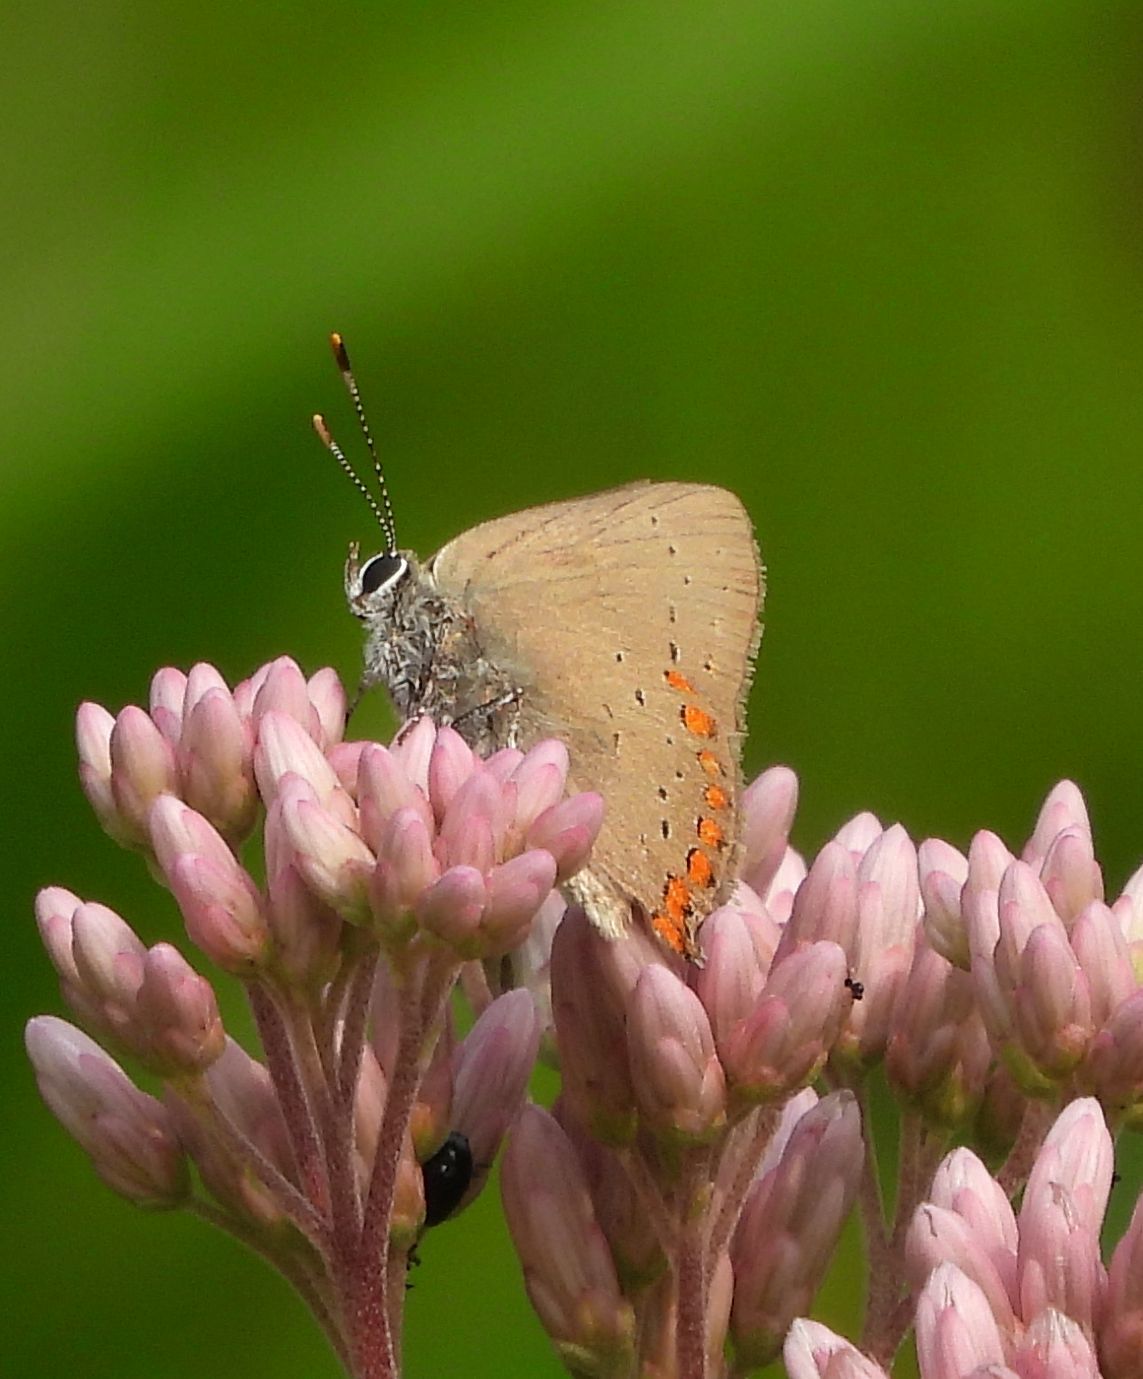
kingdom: Animalia
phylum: Arthropoda
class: Insecta
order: Lepidoptera
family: Lycaenidae
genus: Harkenclenus
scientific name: Harkenclenus titus
